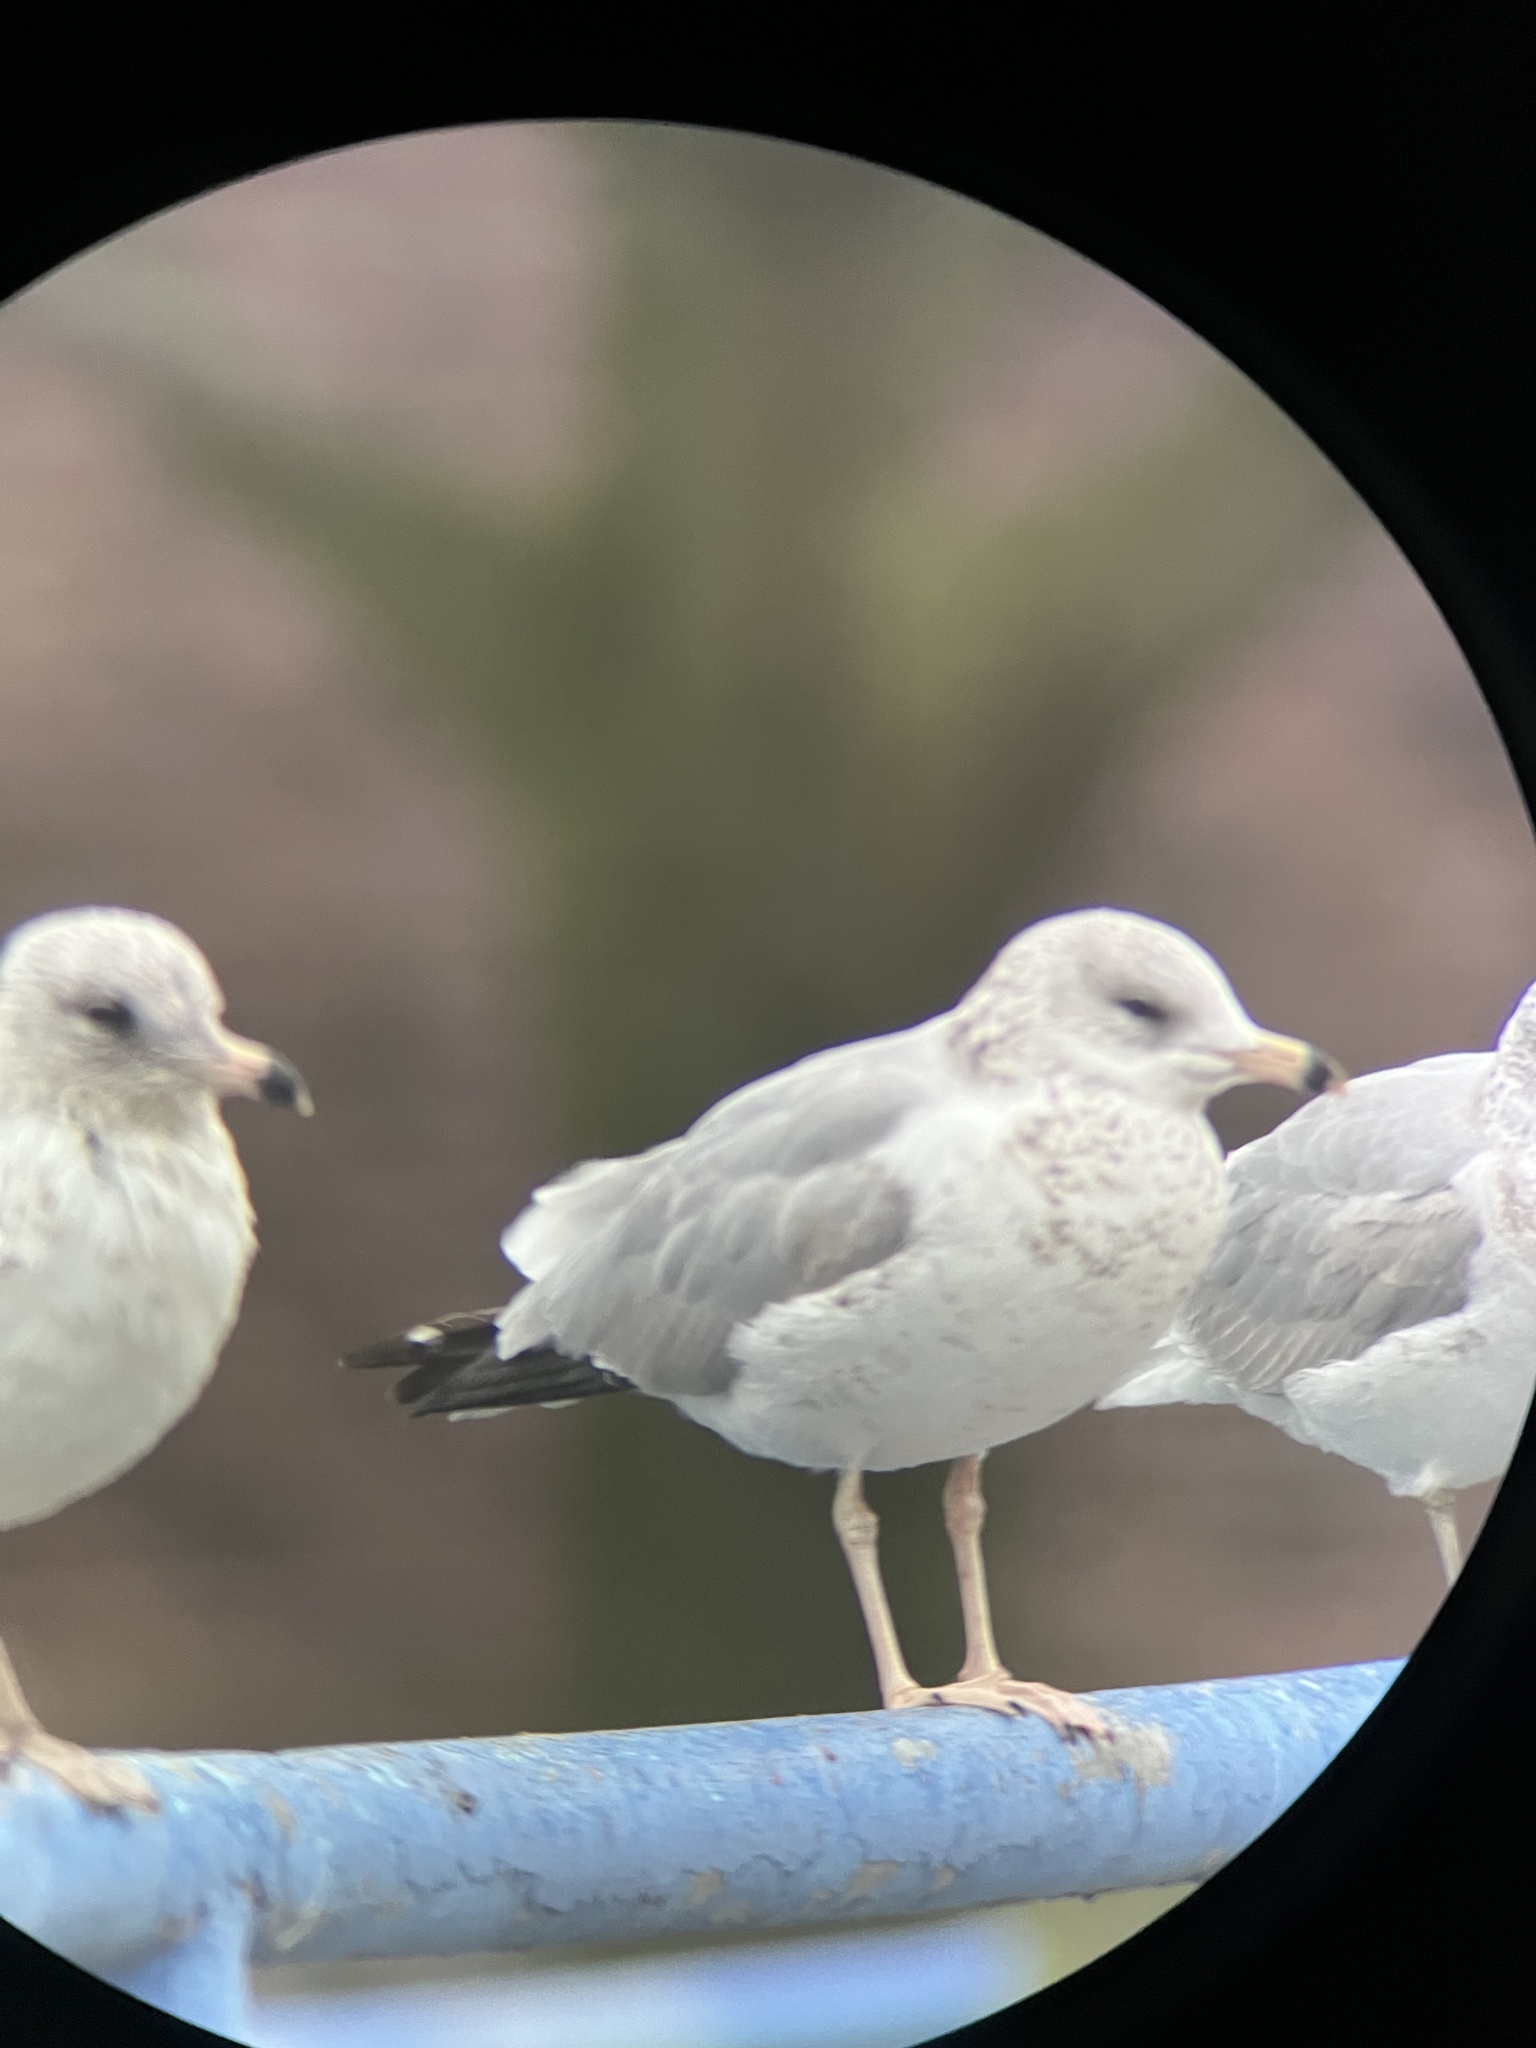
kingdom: Animalia
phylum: Chordata
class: Aves
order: Charadriiformes
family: Laridae
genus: Larus
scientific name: Larus delawarensis
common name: Ring-billed gull
